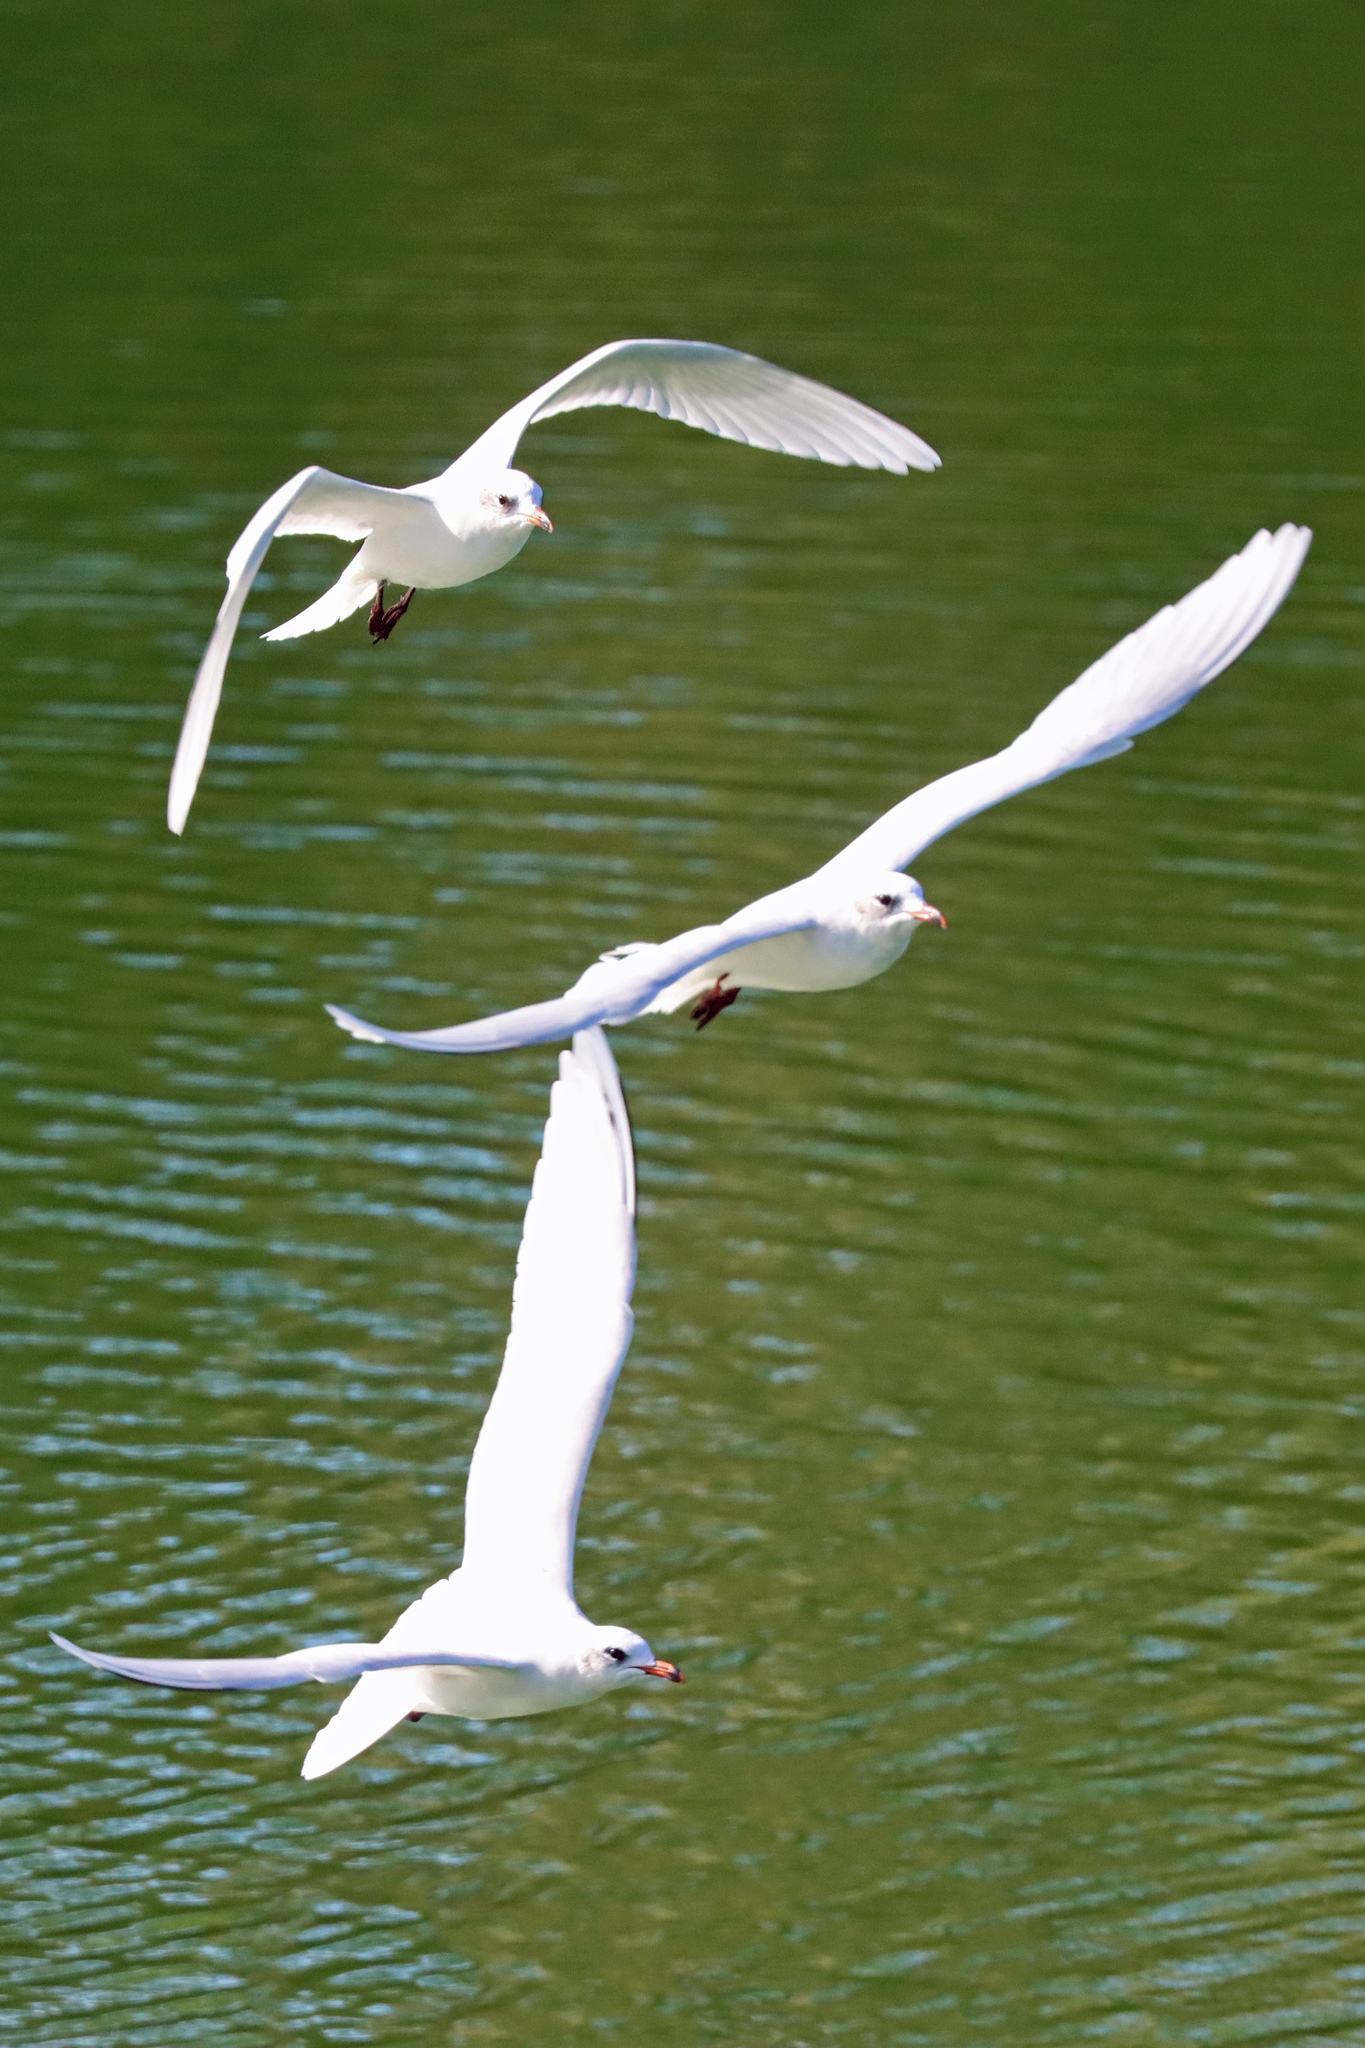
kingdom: Animalia
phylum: Chordata
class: Aves
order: Charadriiformes
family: Laridae
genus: Ichthyaetus
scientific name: Ichthyaetus melanocephalus
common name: Mediterranean gull
